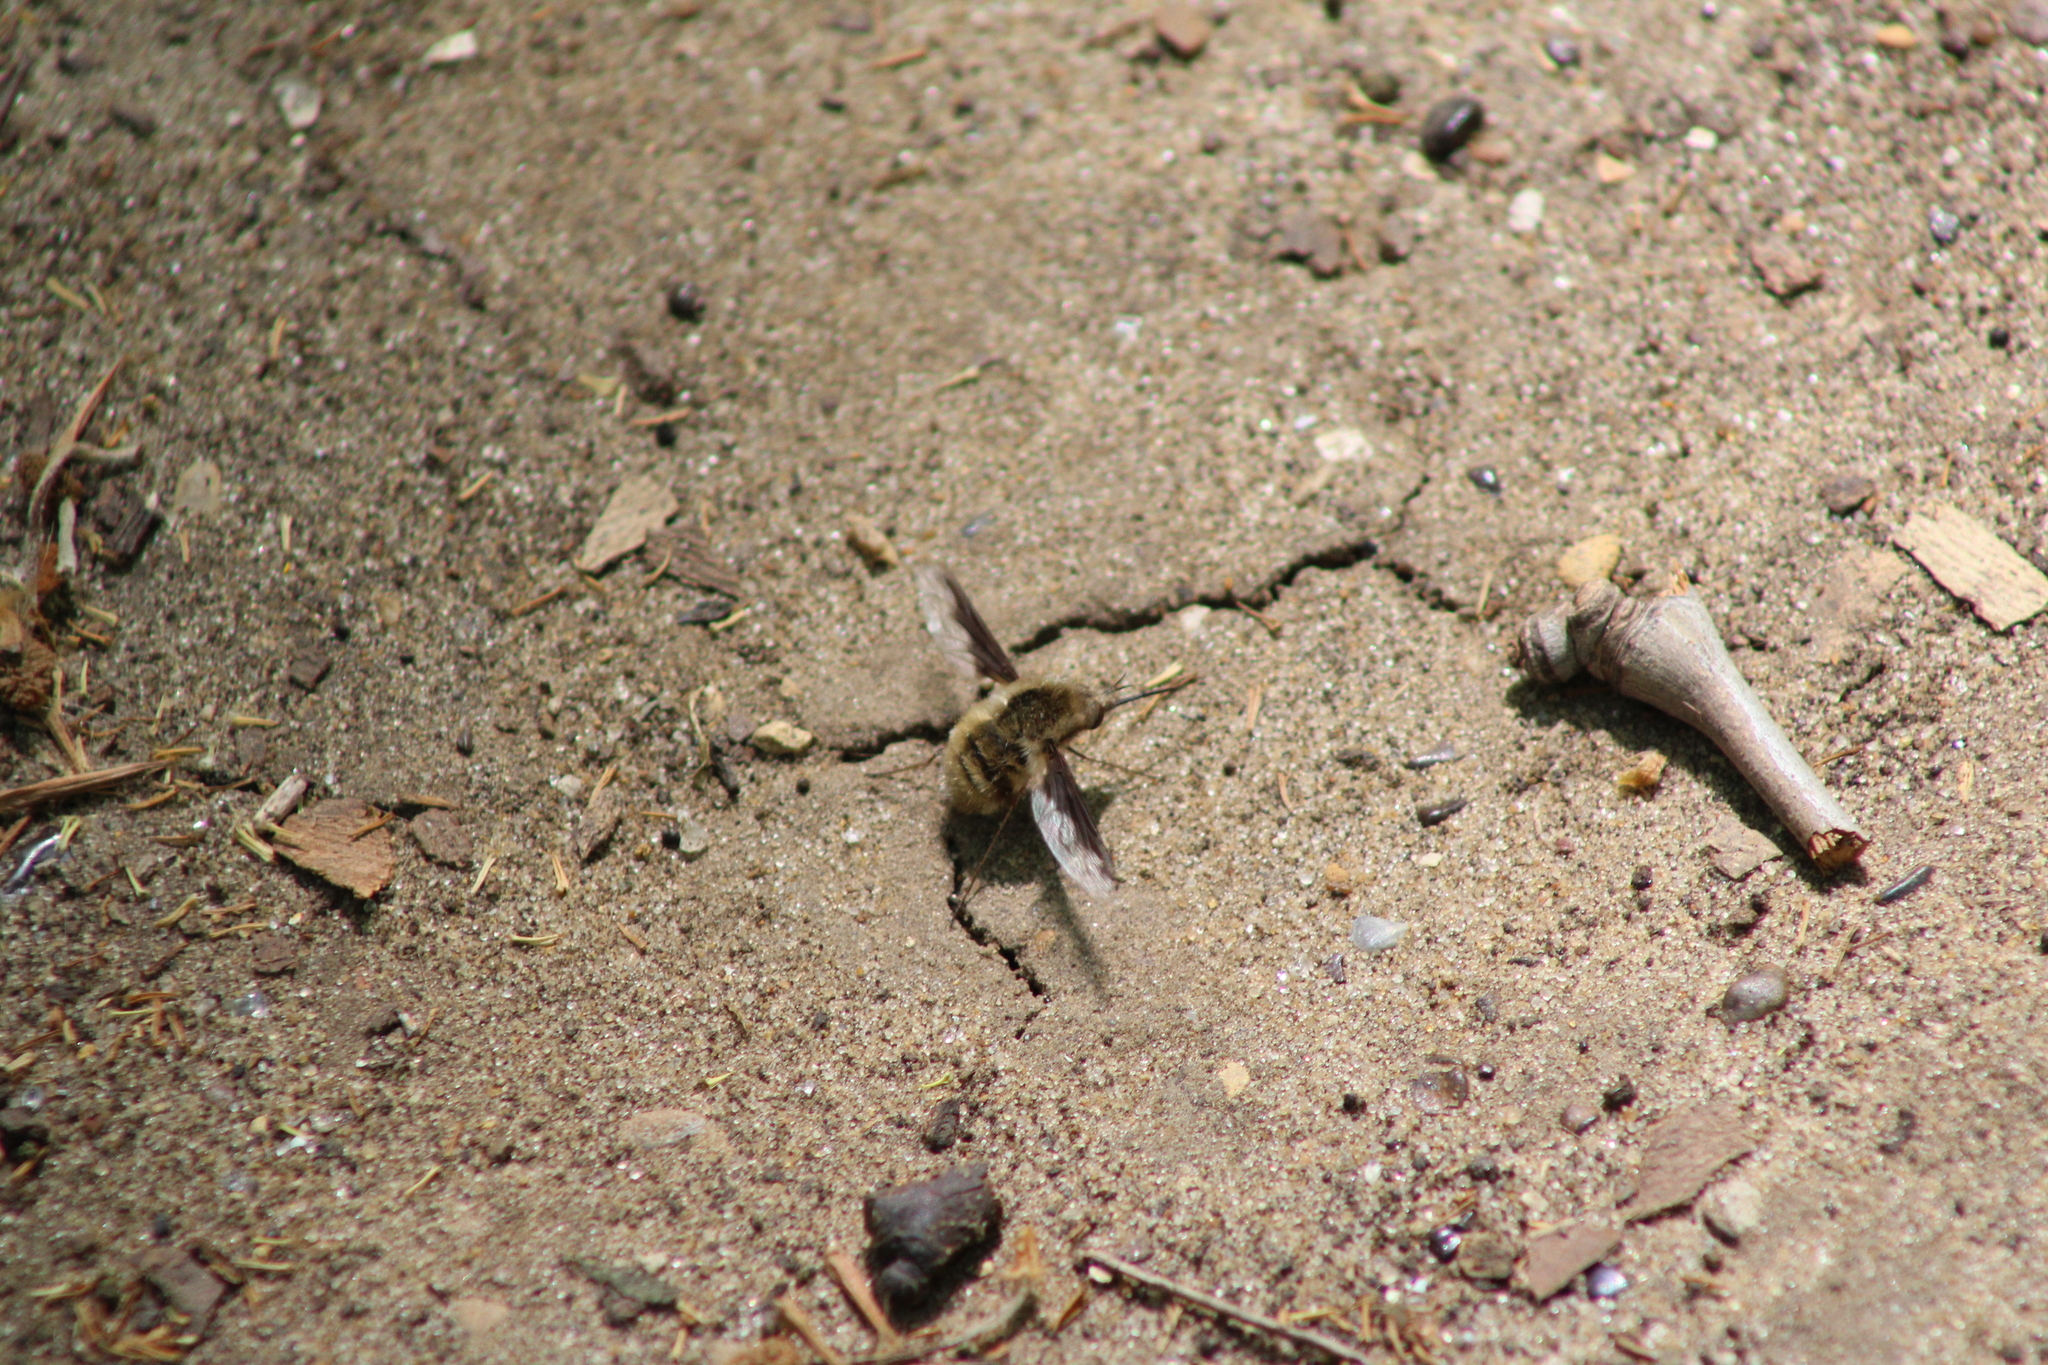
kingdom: Animalia
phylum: Arthropoda
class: Insecta
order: Diptera
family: Bombyliidae
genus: Bombylius
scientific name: Bombylius major
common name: Bee fly
